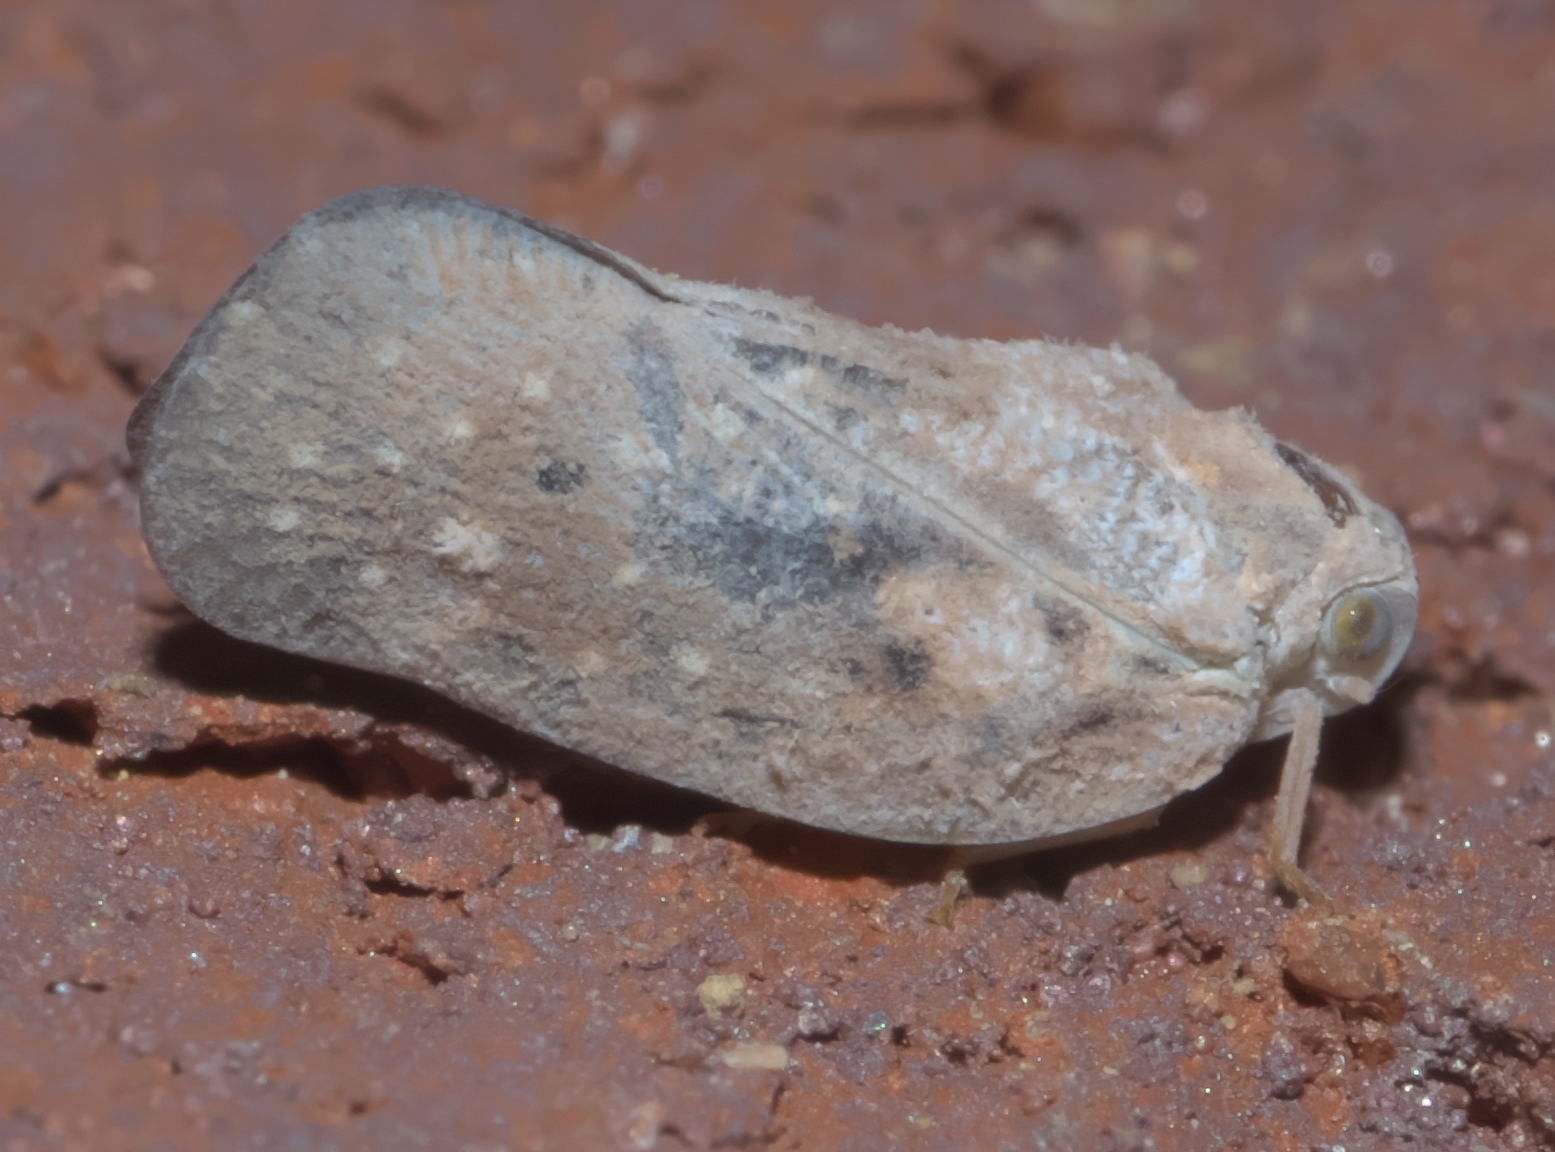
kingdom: Animalia
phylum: Arthropoda
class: Insecta
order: Hemiptera
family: Flatidae
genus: Metcalfa
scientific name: Metcalfa pruinosa
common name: Citrus flatid planthopper
